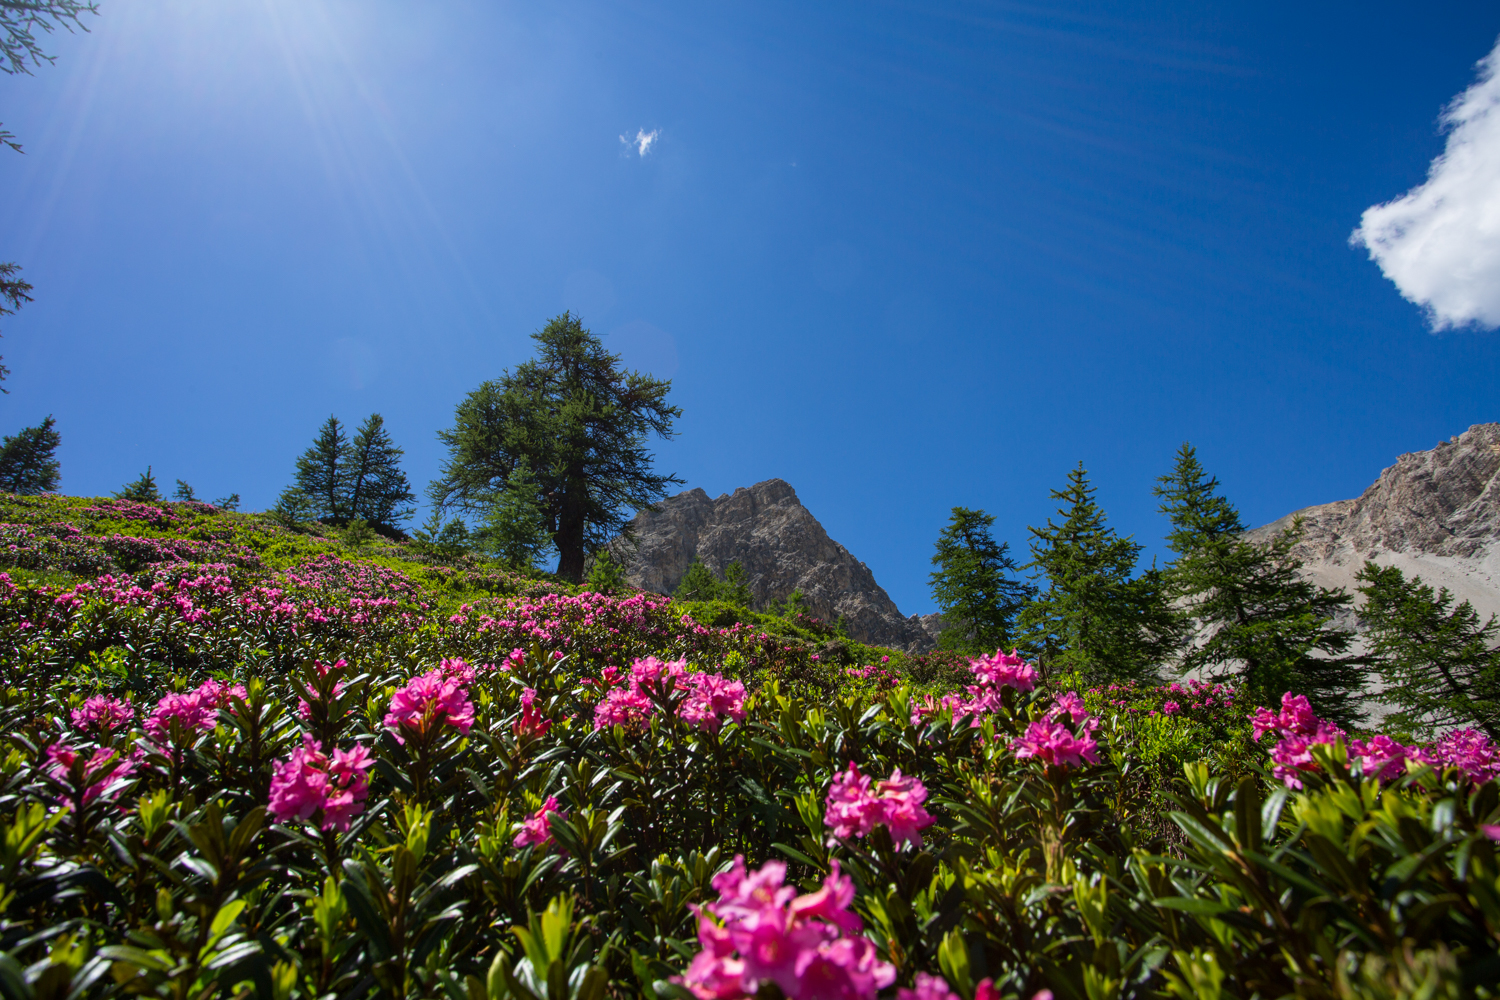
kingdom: Plantae
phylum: Tracheophyta
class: Magnoliopsida
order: Ericales
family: Ericaceae
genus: Rhododendron
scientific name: Rhododendron ferrugineum
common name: Alpenrose
